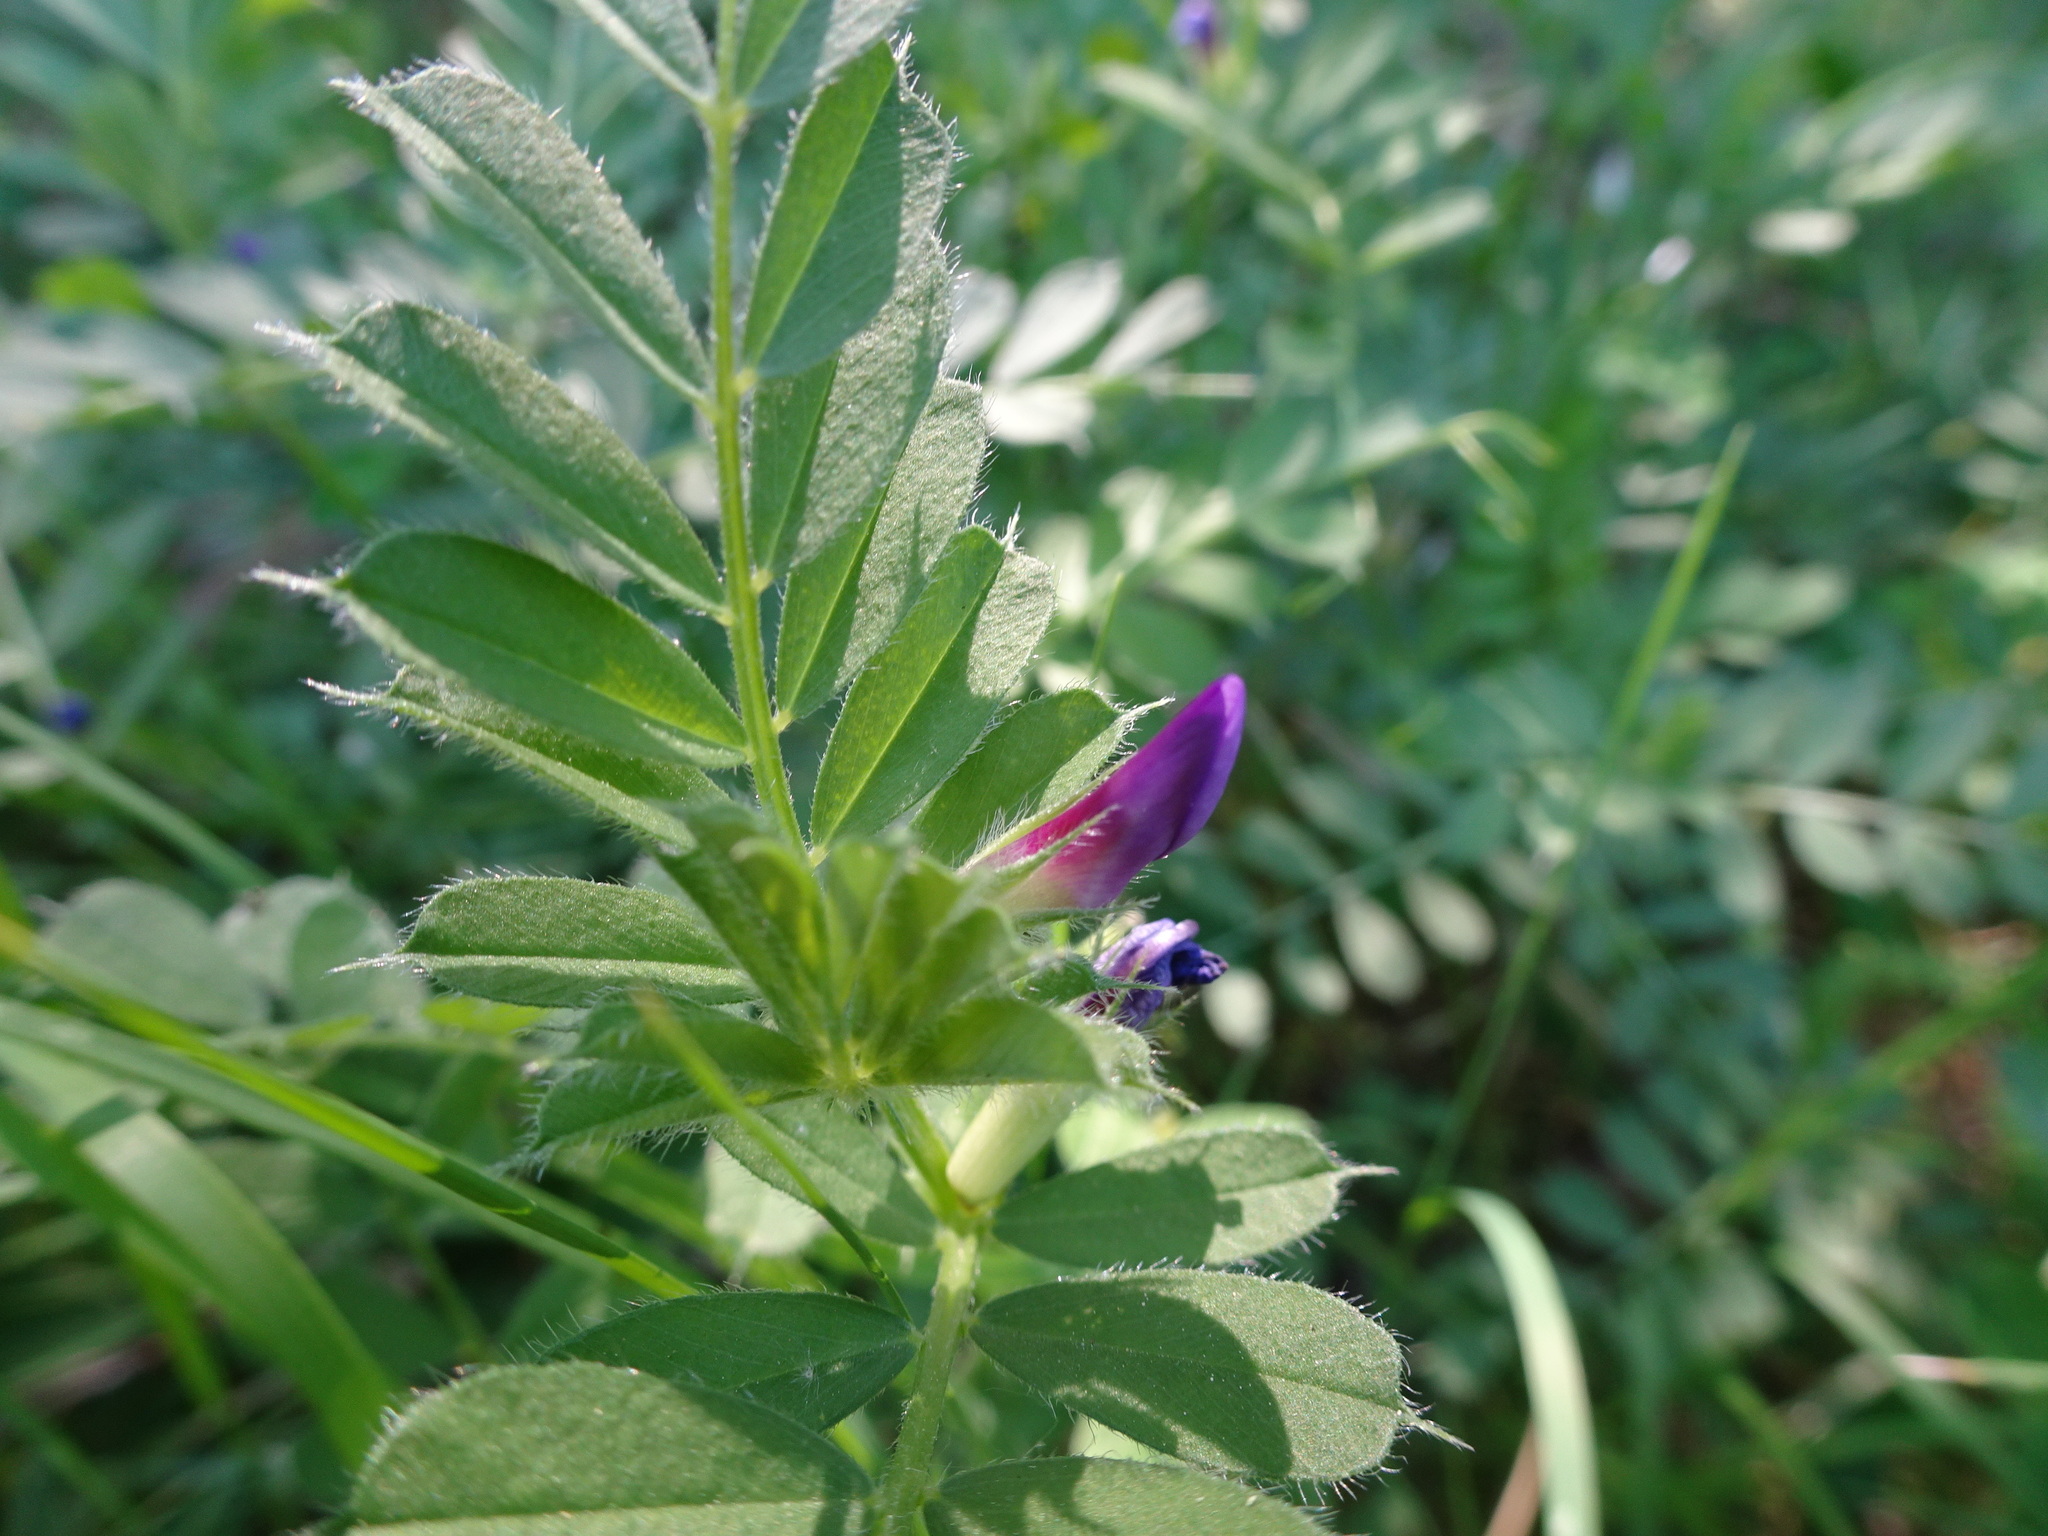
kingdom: Plantae
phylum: Tracheophyta
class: Magnoliopsida
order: Fabales
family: Fabaceae
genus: Vicia
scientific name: Vicia sativa
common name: Garden vetch
